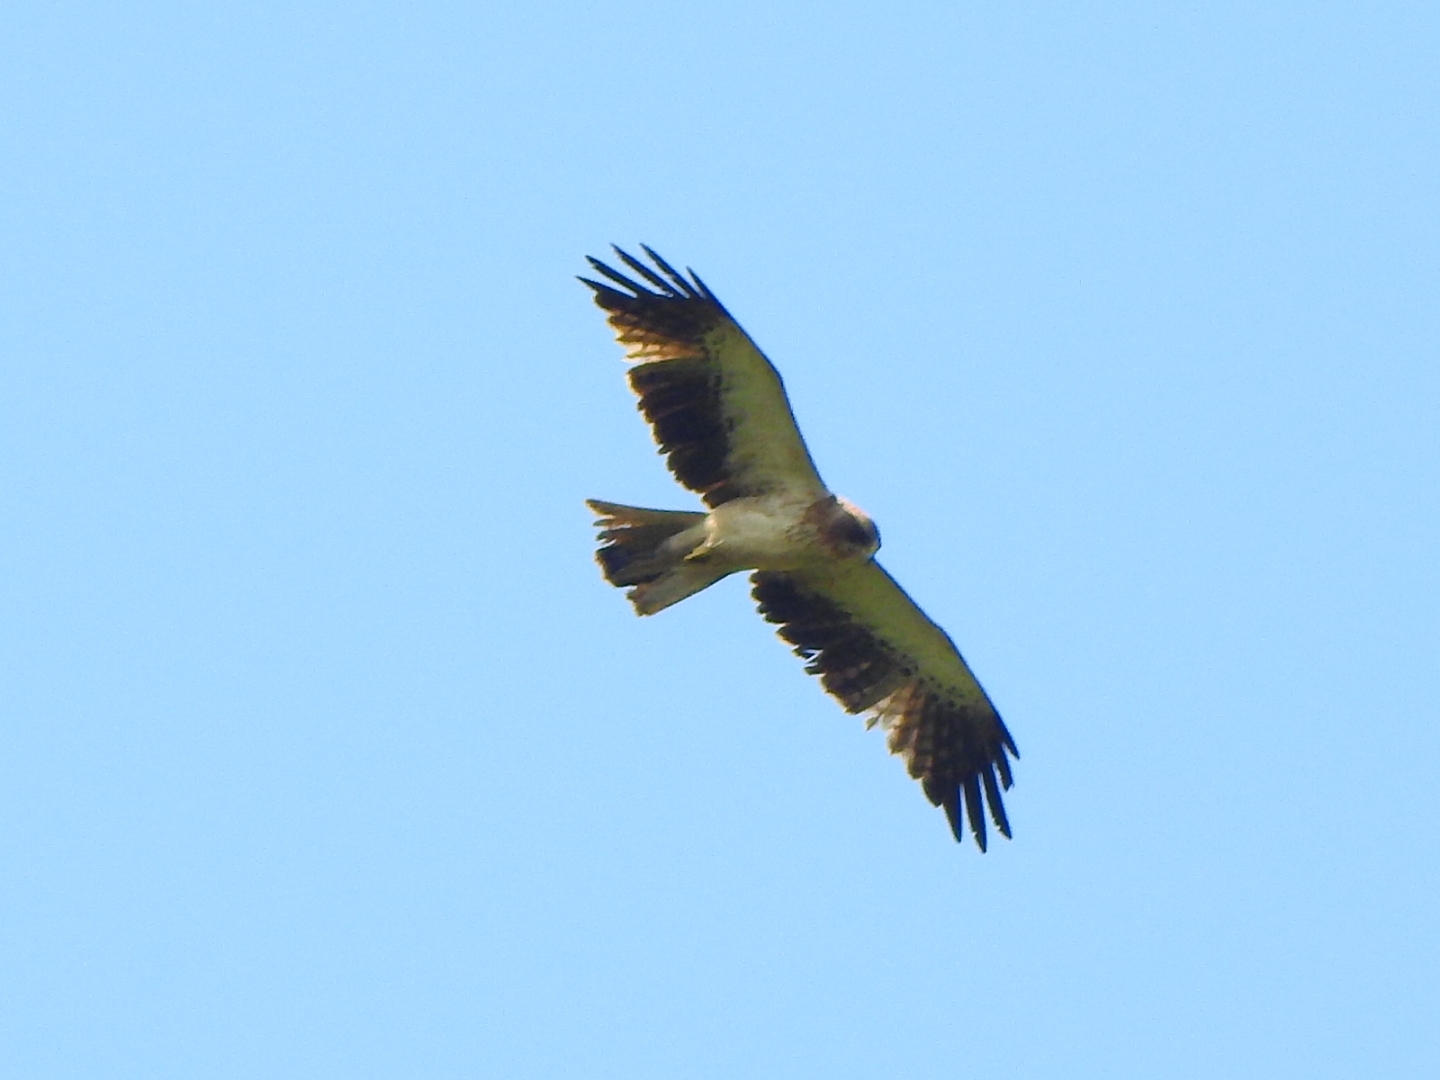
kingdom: Animalia
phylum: Chordata
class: Aves
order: Accipitriformes
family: Accipitridae
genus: Hieraaetus
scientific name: Hieraaetus pennatus
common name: Booted eagle
